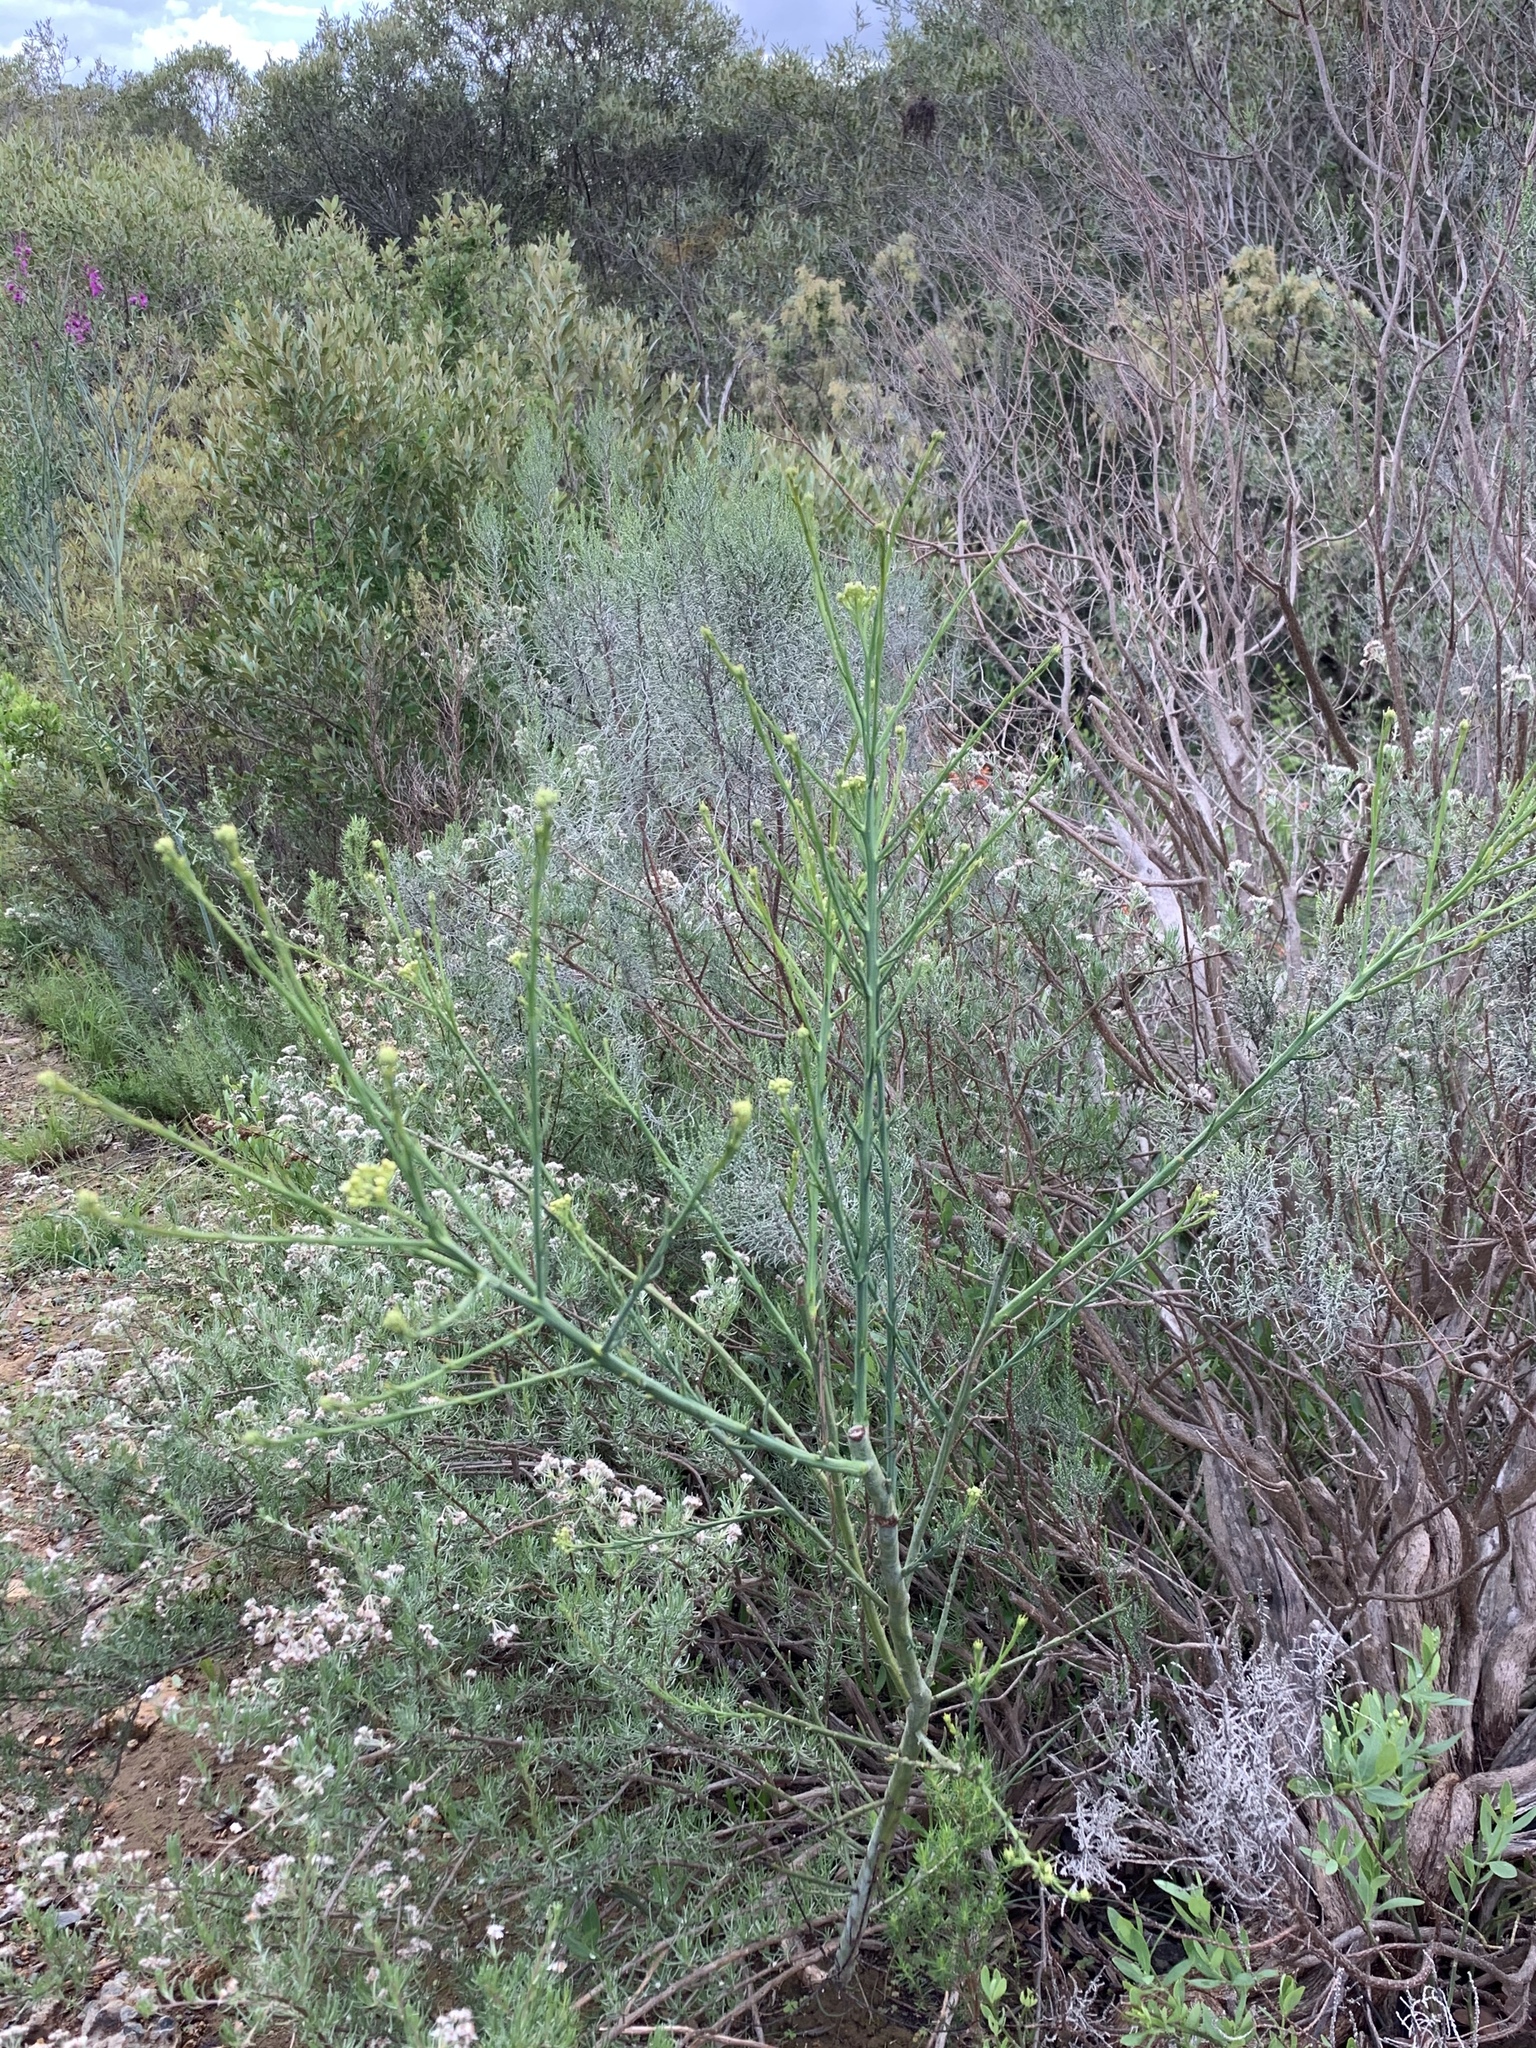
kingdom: Plantae
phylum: Tracheophyta
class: Magnoliopsida
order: Santalales
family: Thesiaceae
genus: Thesium
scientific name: Thesium strictum
